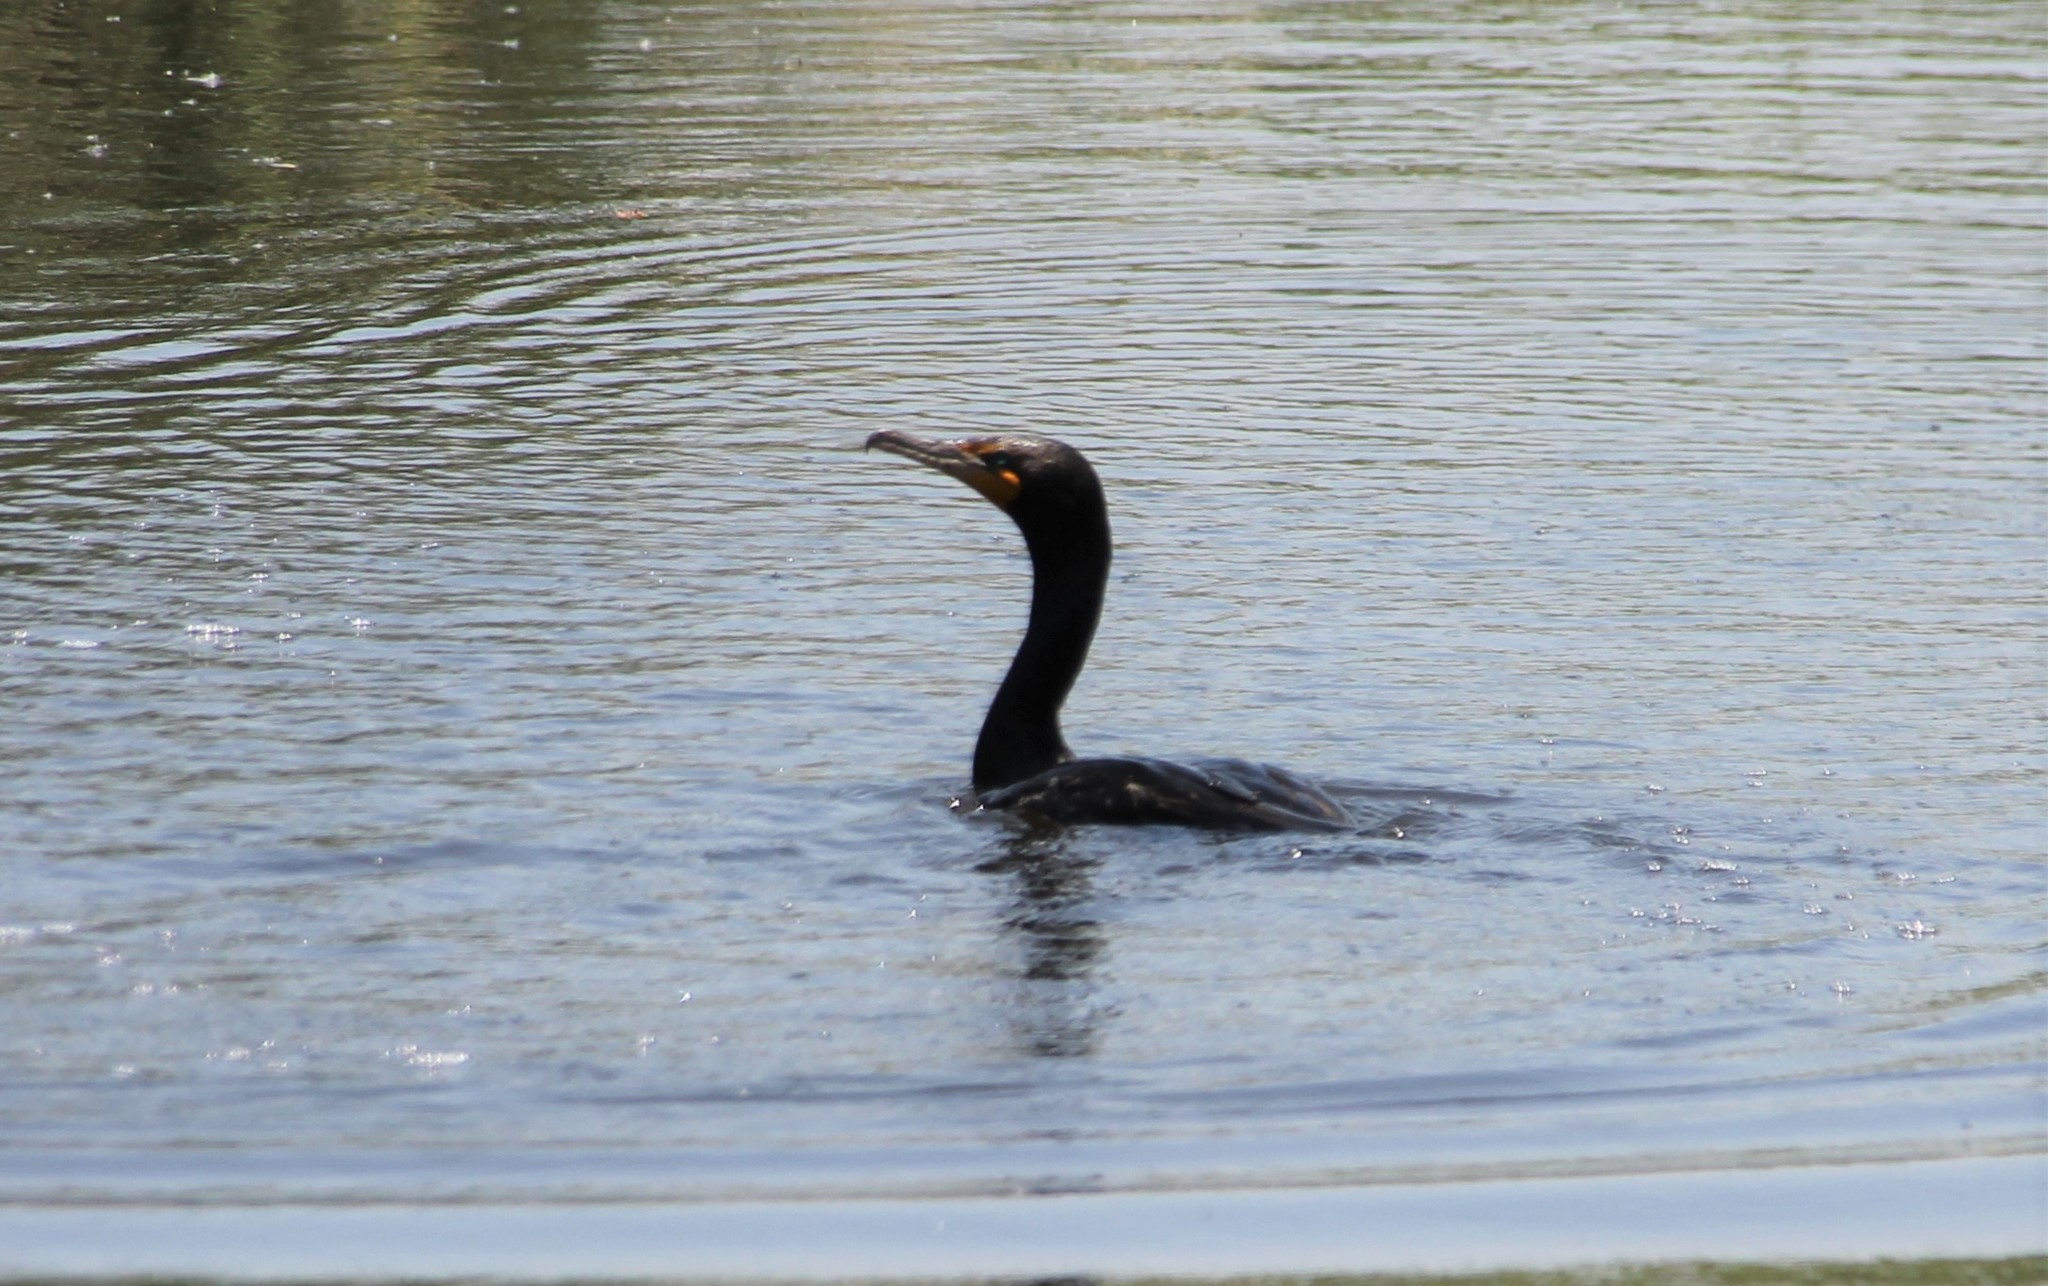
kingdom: Animalia
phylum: Chordata
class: Aves
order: Suliformes
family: Phalacrocoracidae
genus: Phalacrocorax
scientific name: Phalacrocorax auritus
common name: Double-crested cormorant
